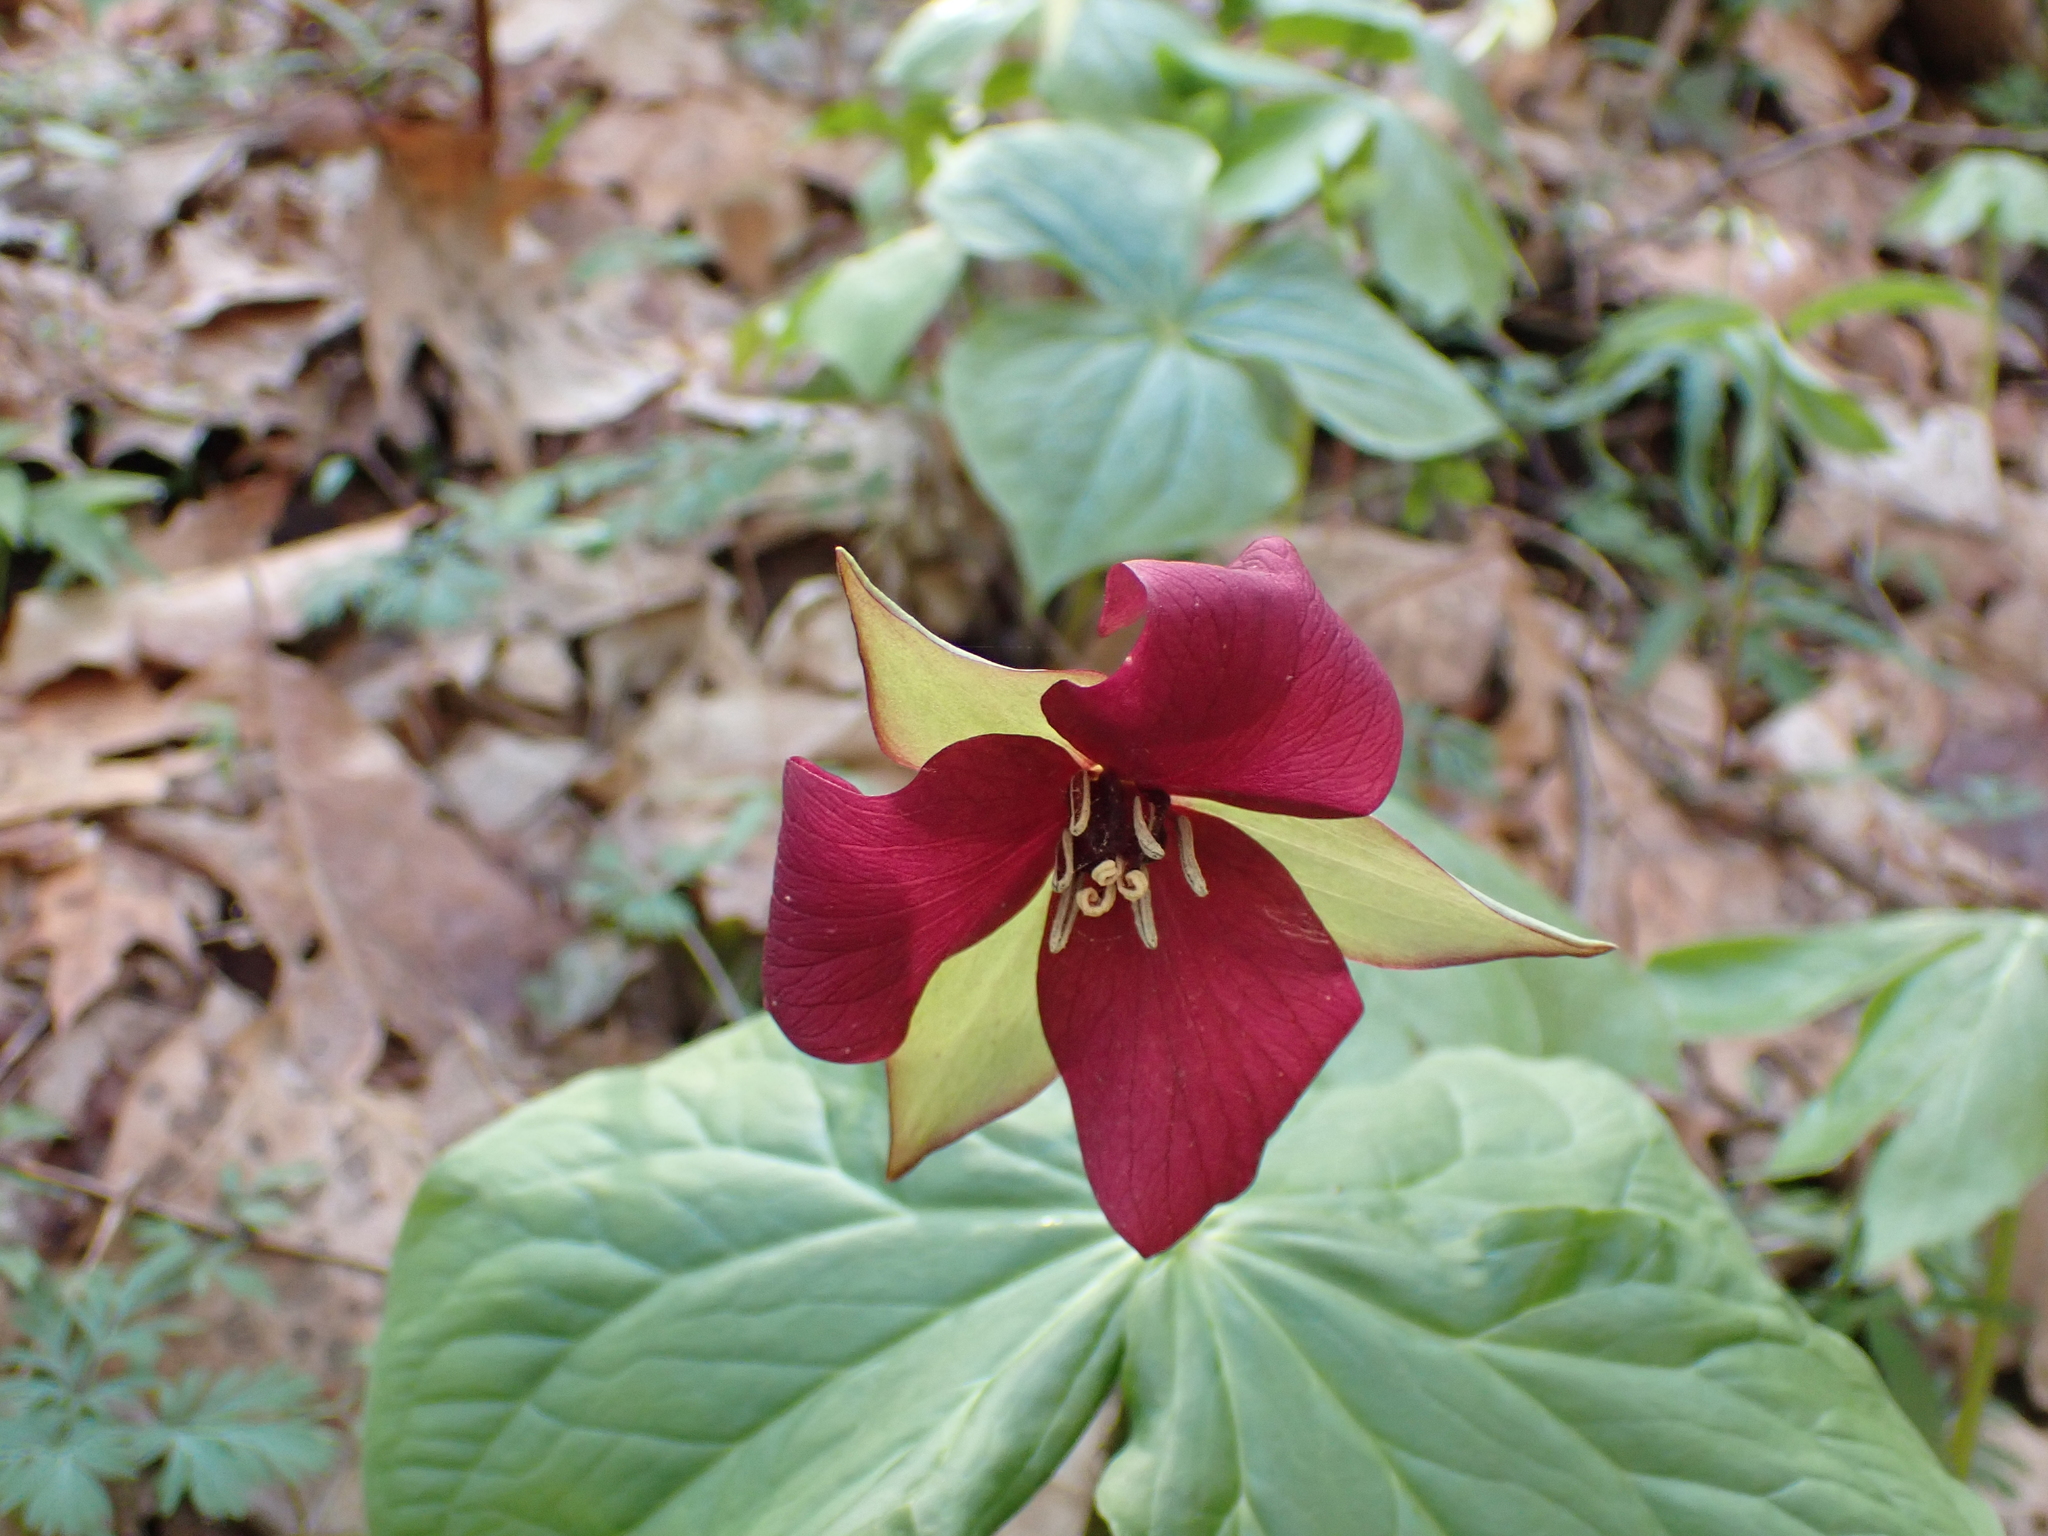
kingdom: Plantae
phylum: Tracheophyta
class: Liliopsida
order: Liliales
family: Melanthiaceae
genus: Trillium
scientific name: Trillium erectum
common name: Purple trillium
